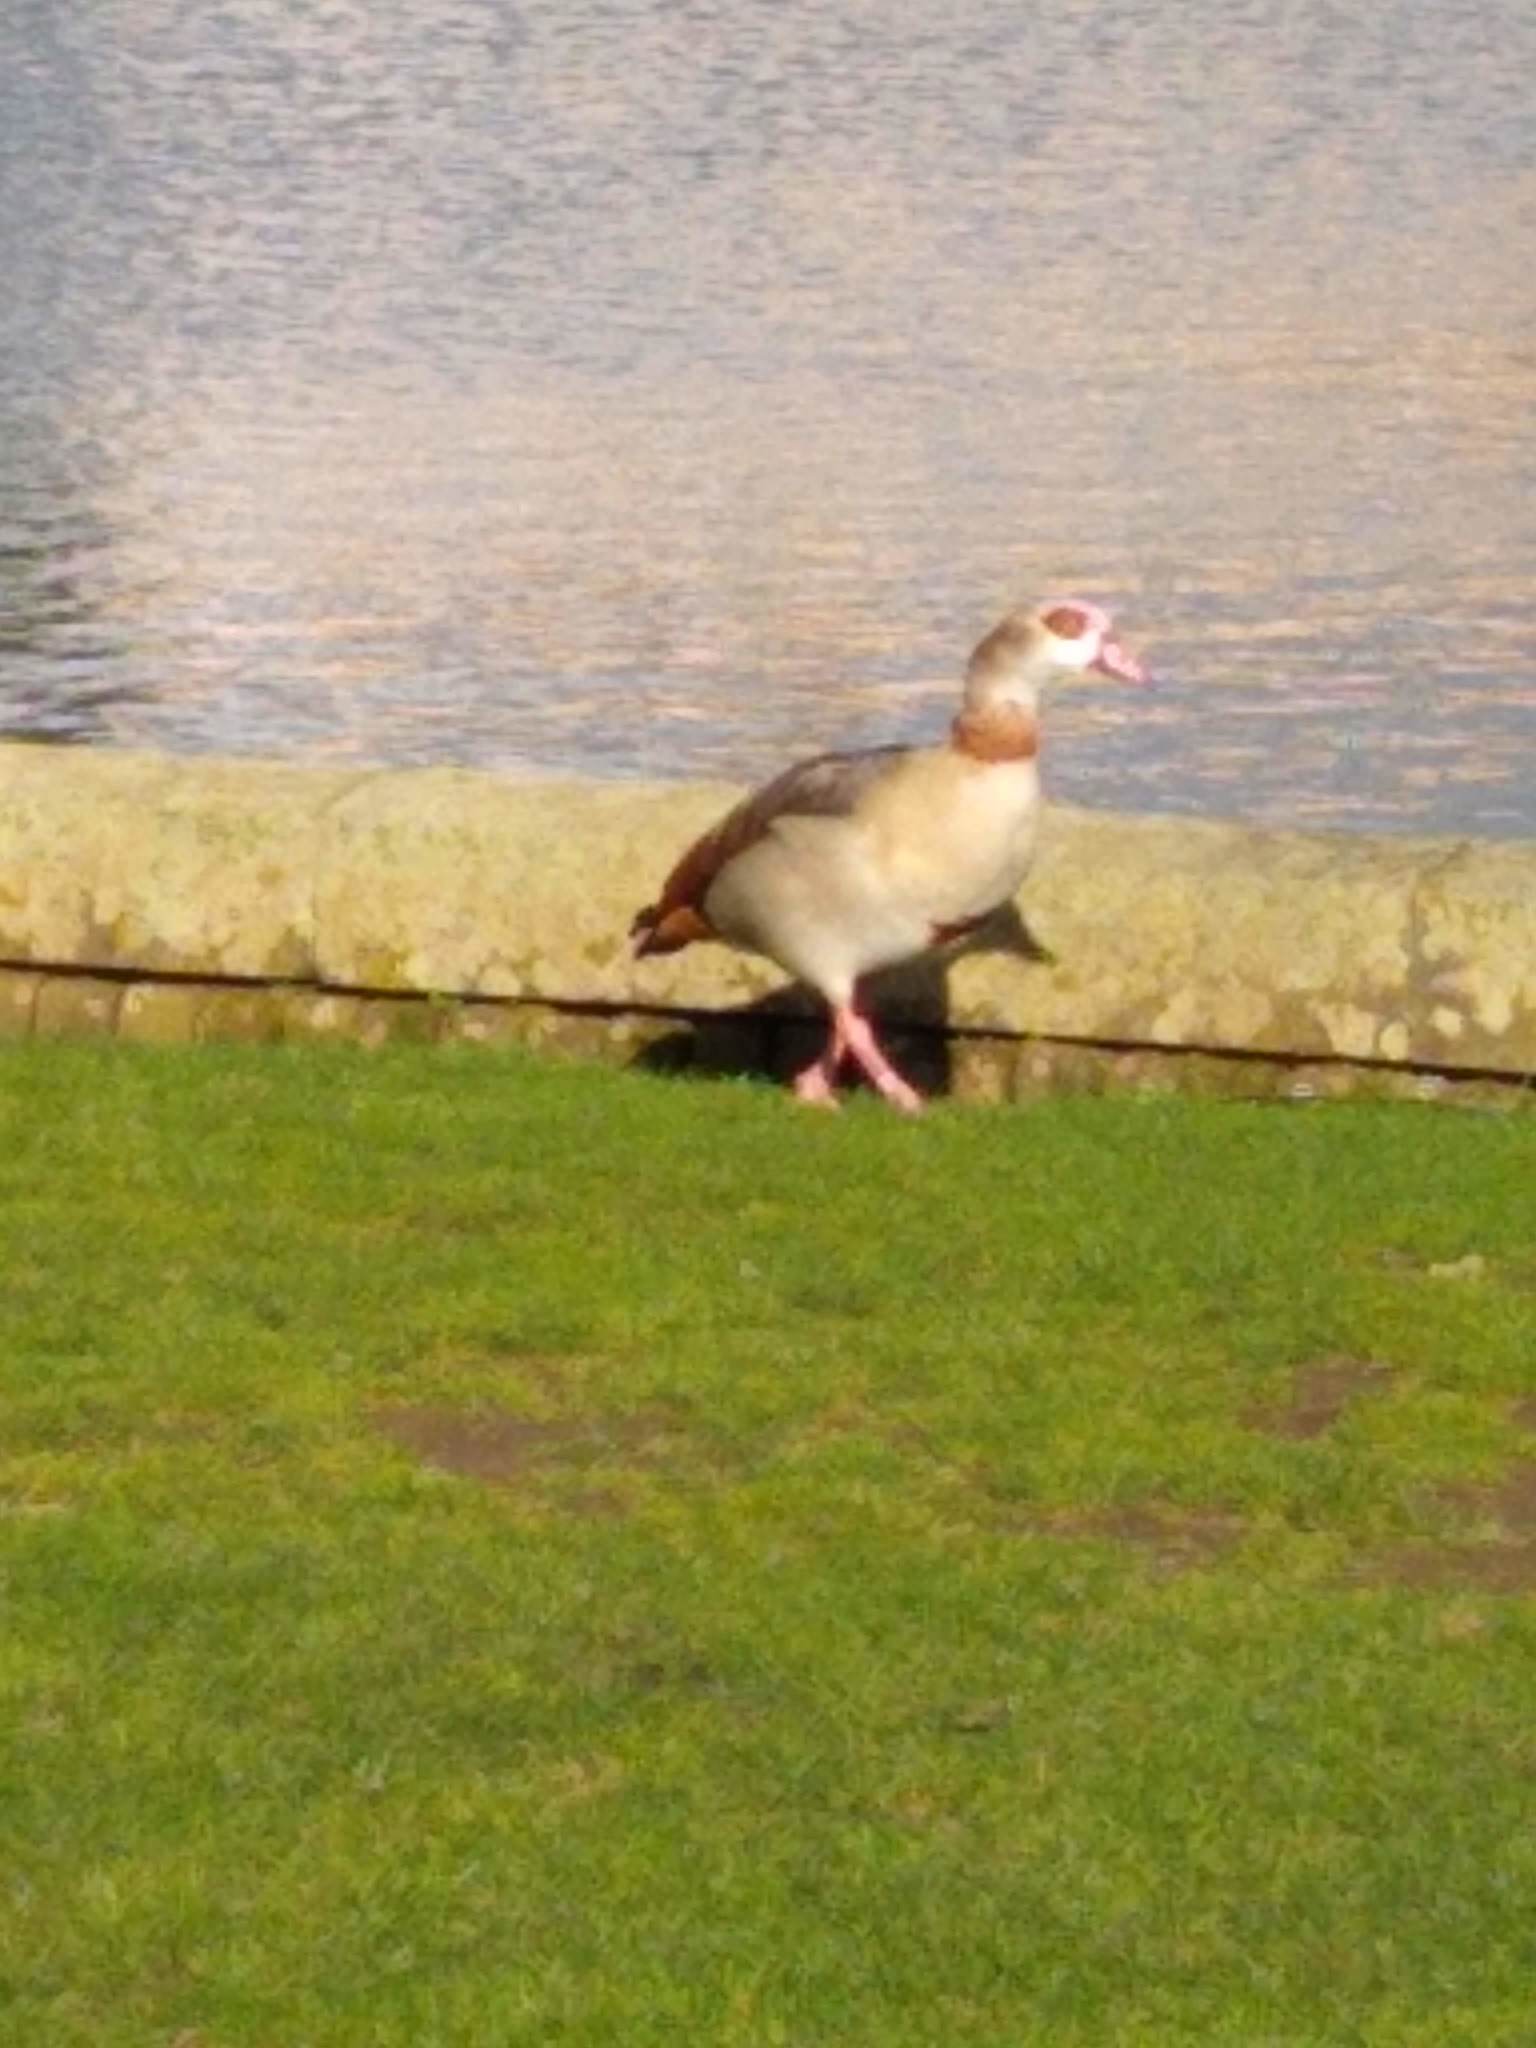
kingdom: Animalia
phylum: Chordata
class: Aves
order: Anseriformes
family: Anatidae
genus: Alopochen
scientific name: Alopochen aegyptiaca
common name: Egyptian goose
